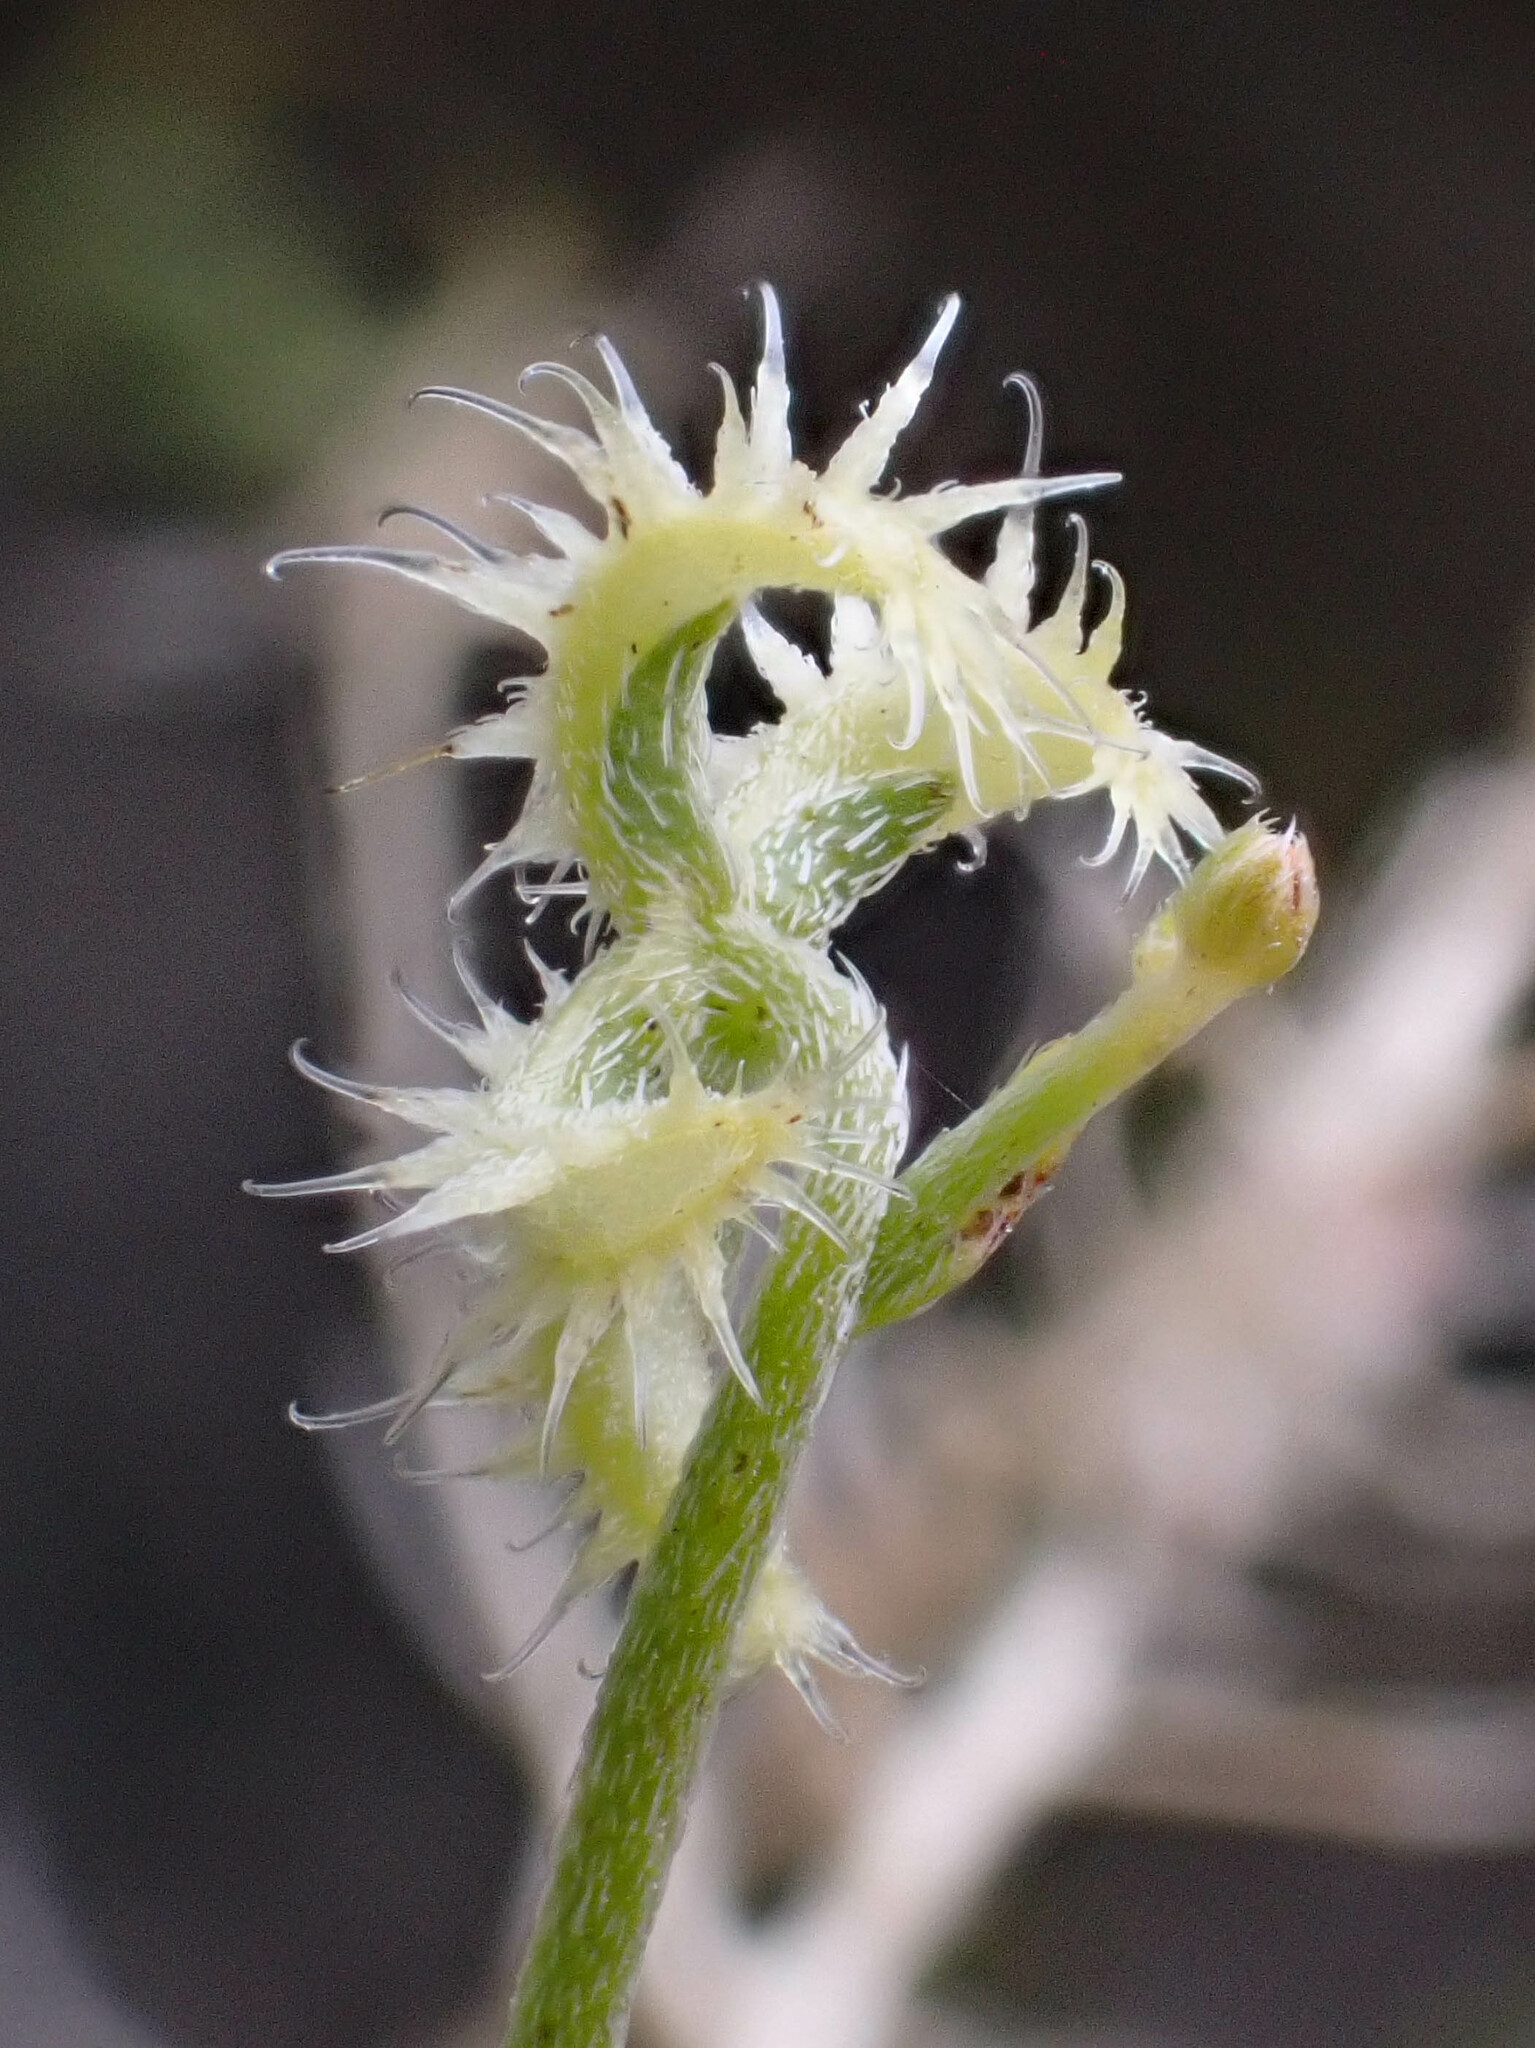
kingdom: Plantae
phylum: Tracheophyta
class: Magnoliopsida
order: Boraginales
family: Boraginaceae
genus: Pectocarya
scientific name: Pectocarya recurvata
